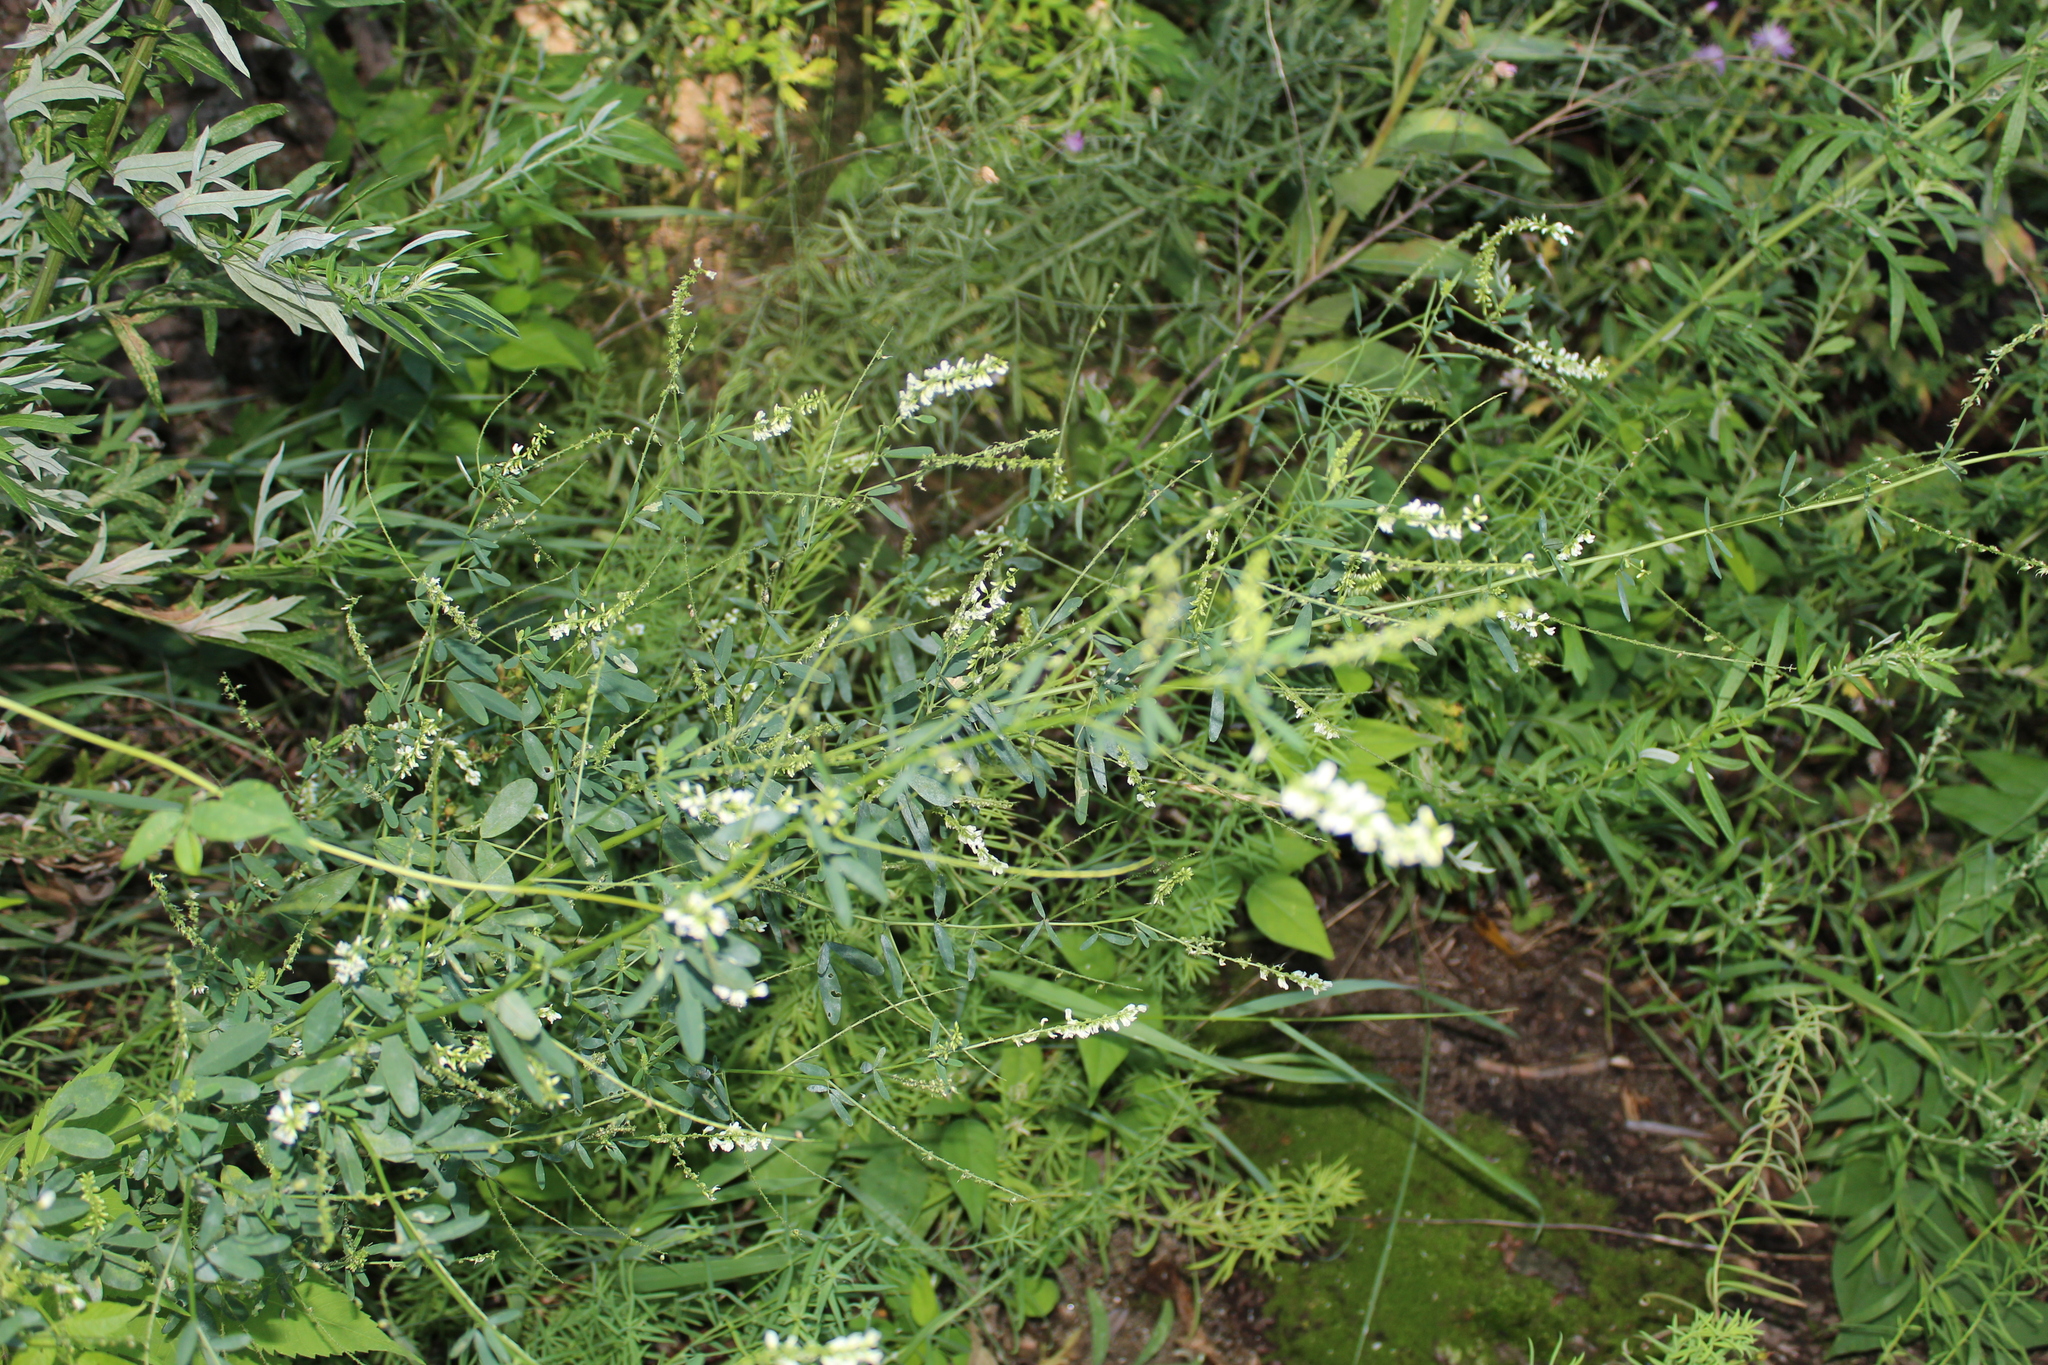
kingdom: Plantae
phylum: Tracheophyta
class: Magnoliopsida
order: Fabales
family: Fabaceae
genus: Melilotus
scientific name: Melilotus albus
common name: White melilot
